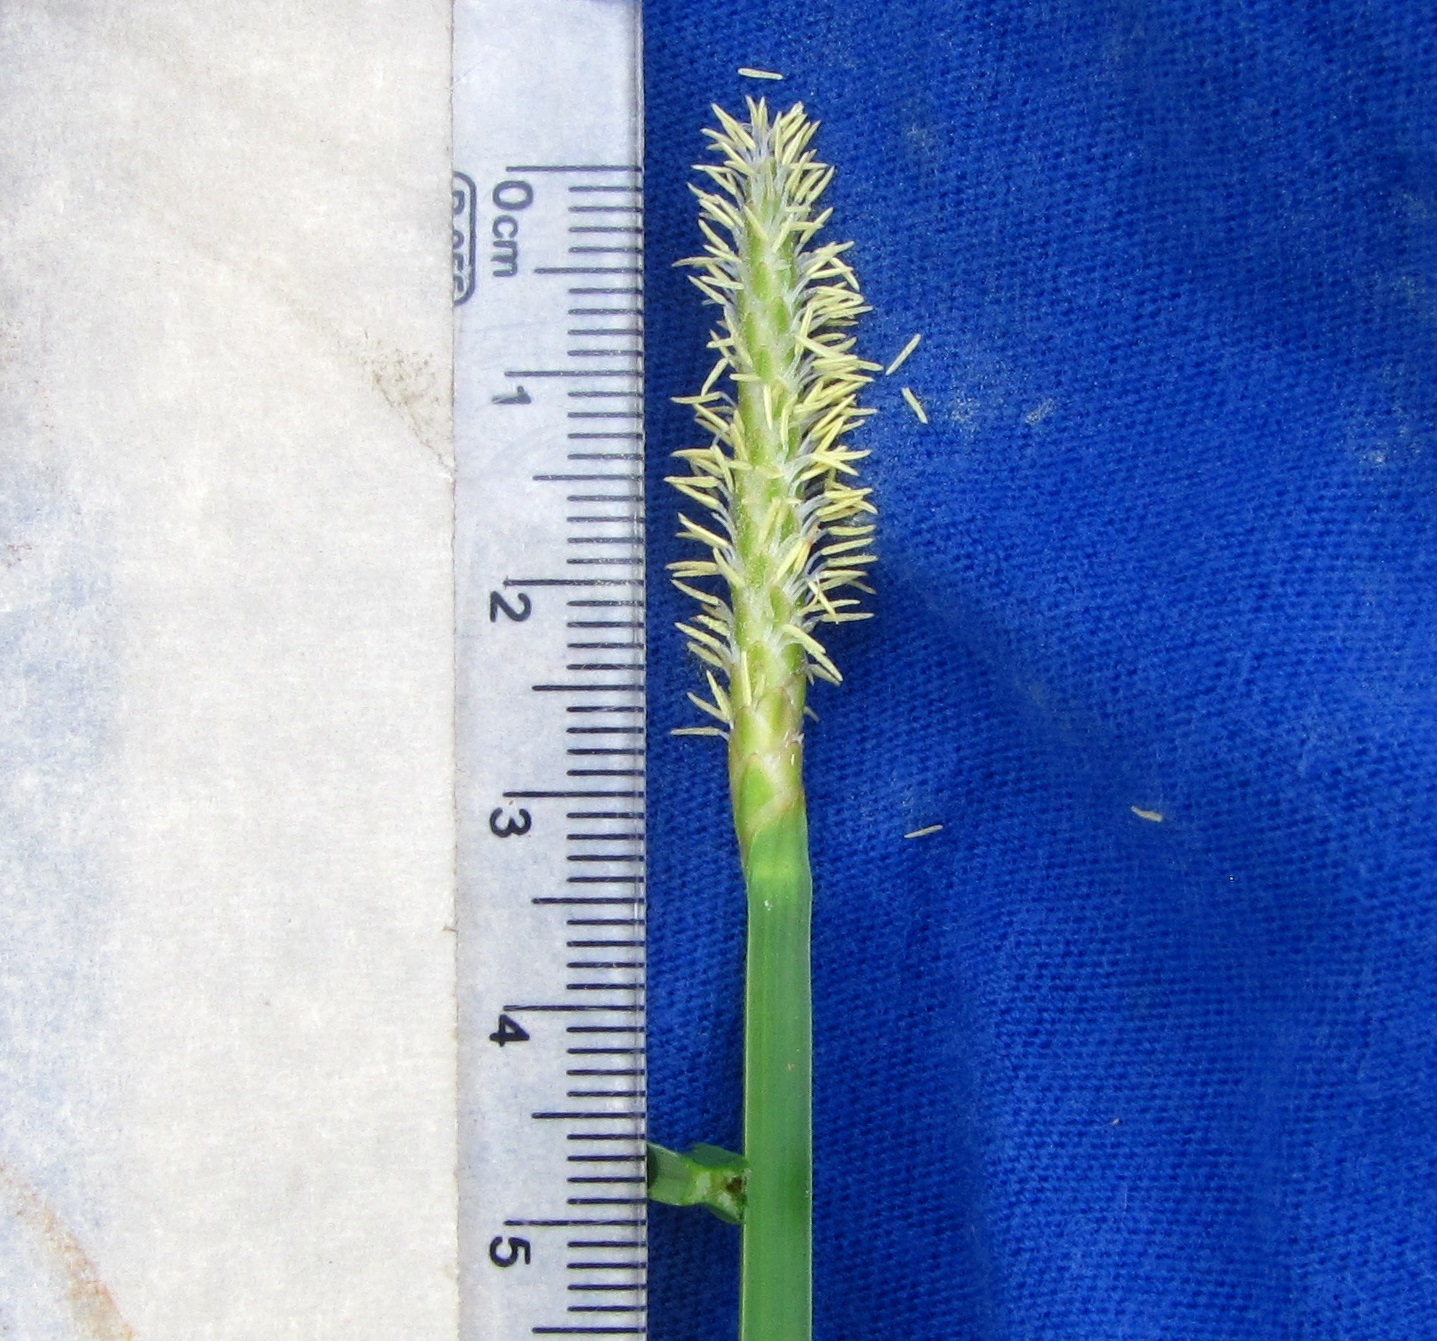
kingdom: Plantae
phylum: Tracheophyta
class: Liliopsida
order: Poales
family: Cyperaceae
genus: Eleocharis
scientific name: Eleocharis quadrangulata
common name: Square-stem spike-rush
